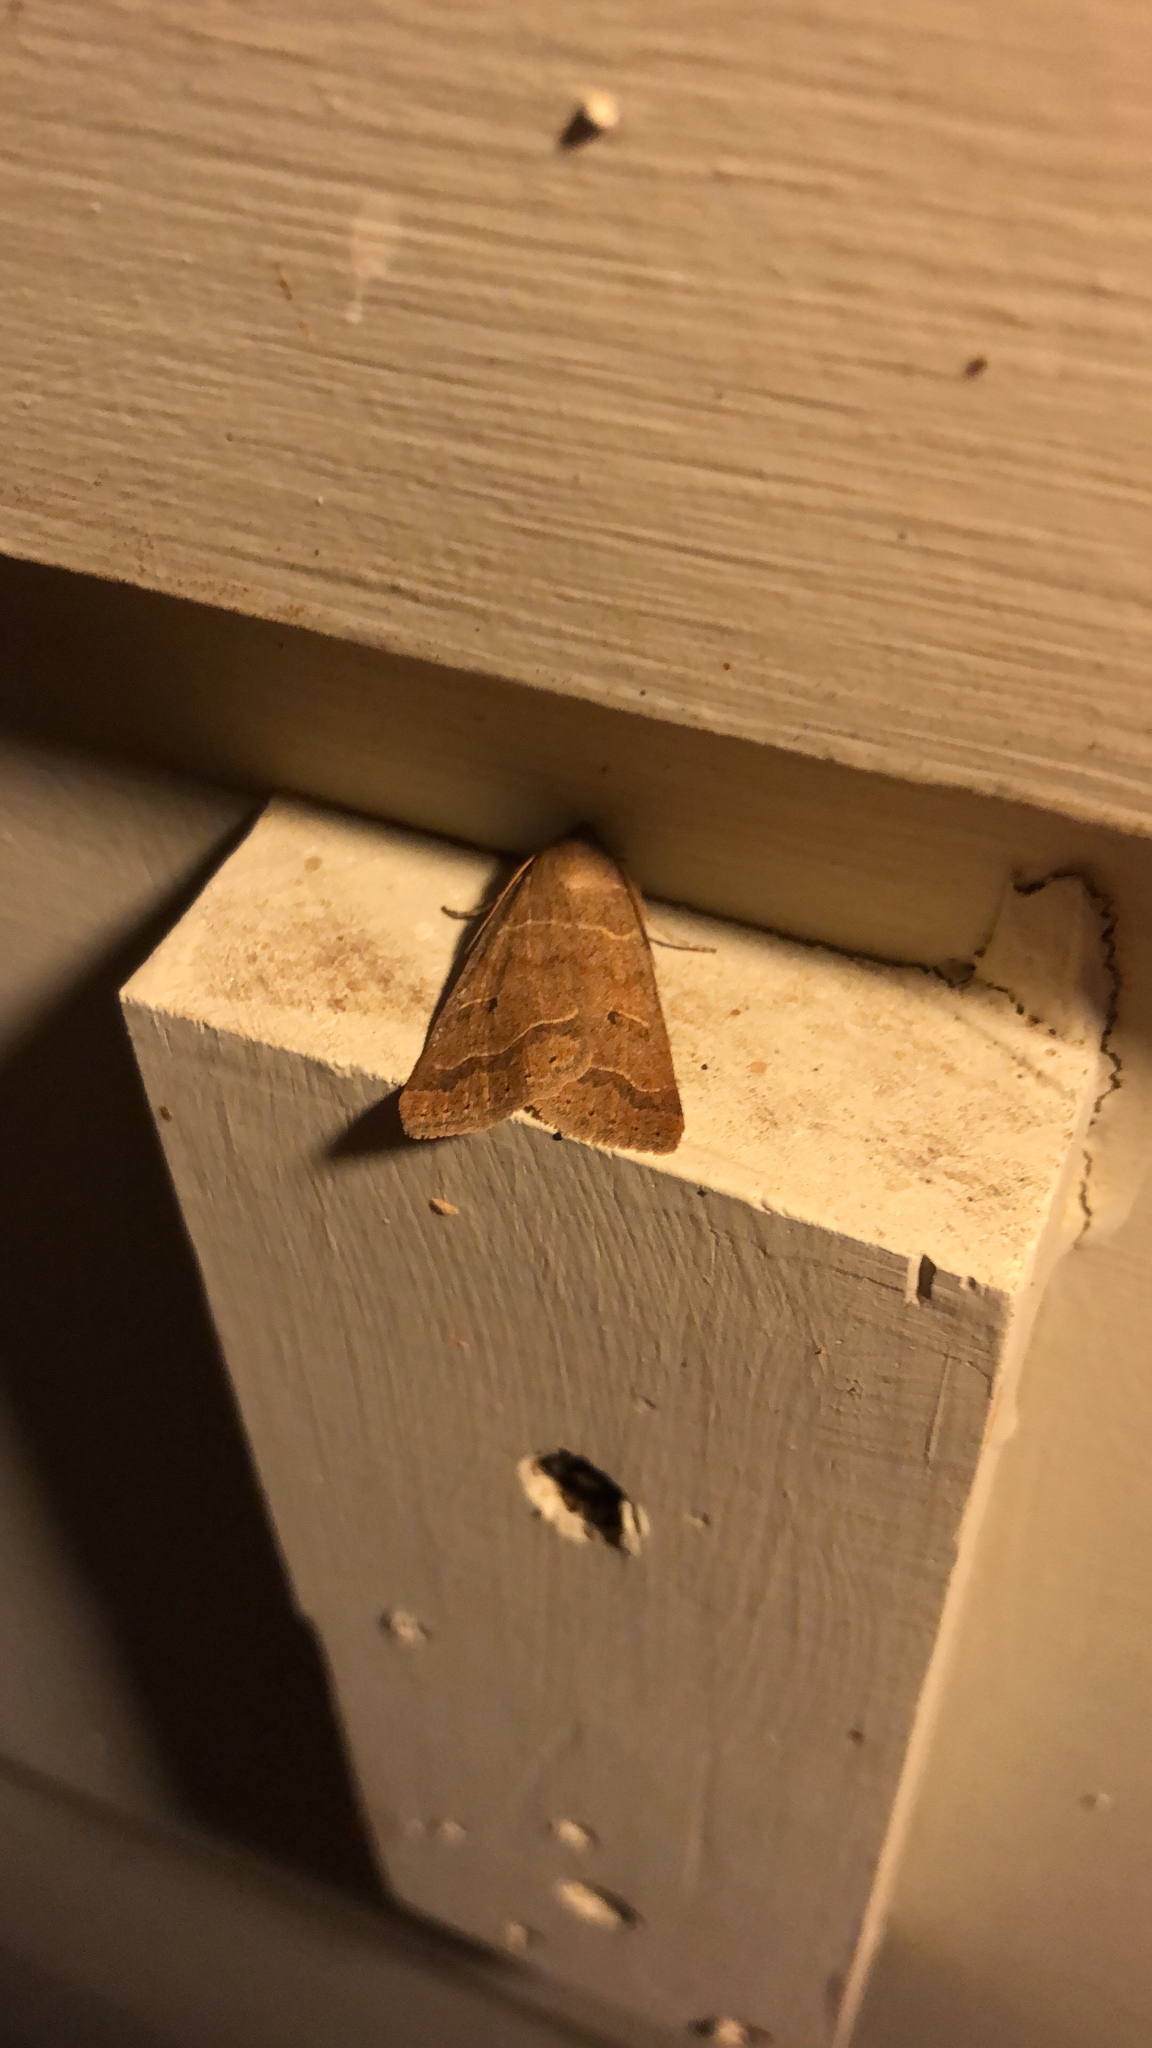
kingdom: Animalia
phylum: Arthropoda
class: Insecta
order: Lepidoptera
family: Erebidae
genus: Phoberia
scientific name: Phoberia atomaris
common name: Common oak moth
